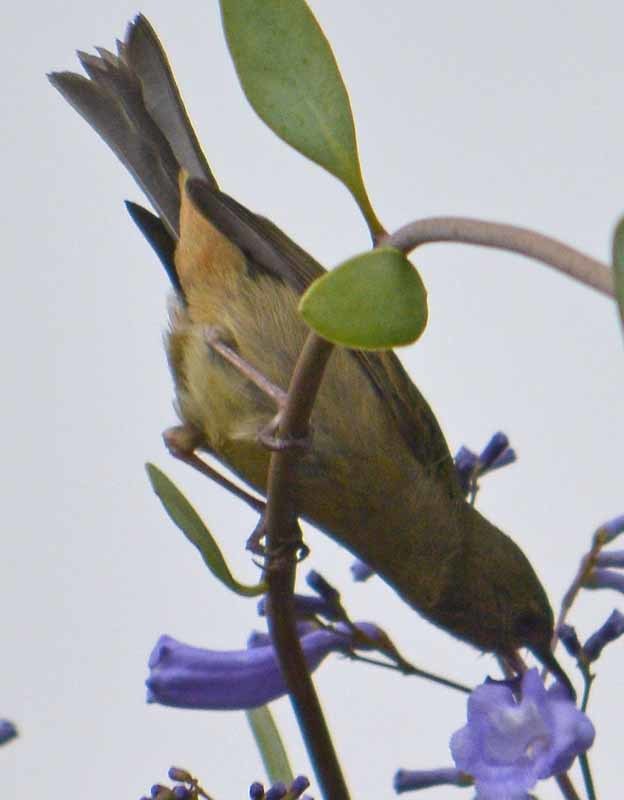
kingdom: Animalia
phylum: Chordata
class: Aves
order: Passeriformes
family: Thraupidae
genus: Diglossa
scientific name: Diglossa baritula
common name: Cinnamon-bellied flowerpiercer
